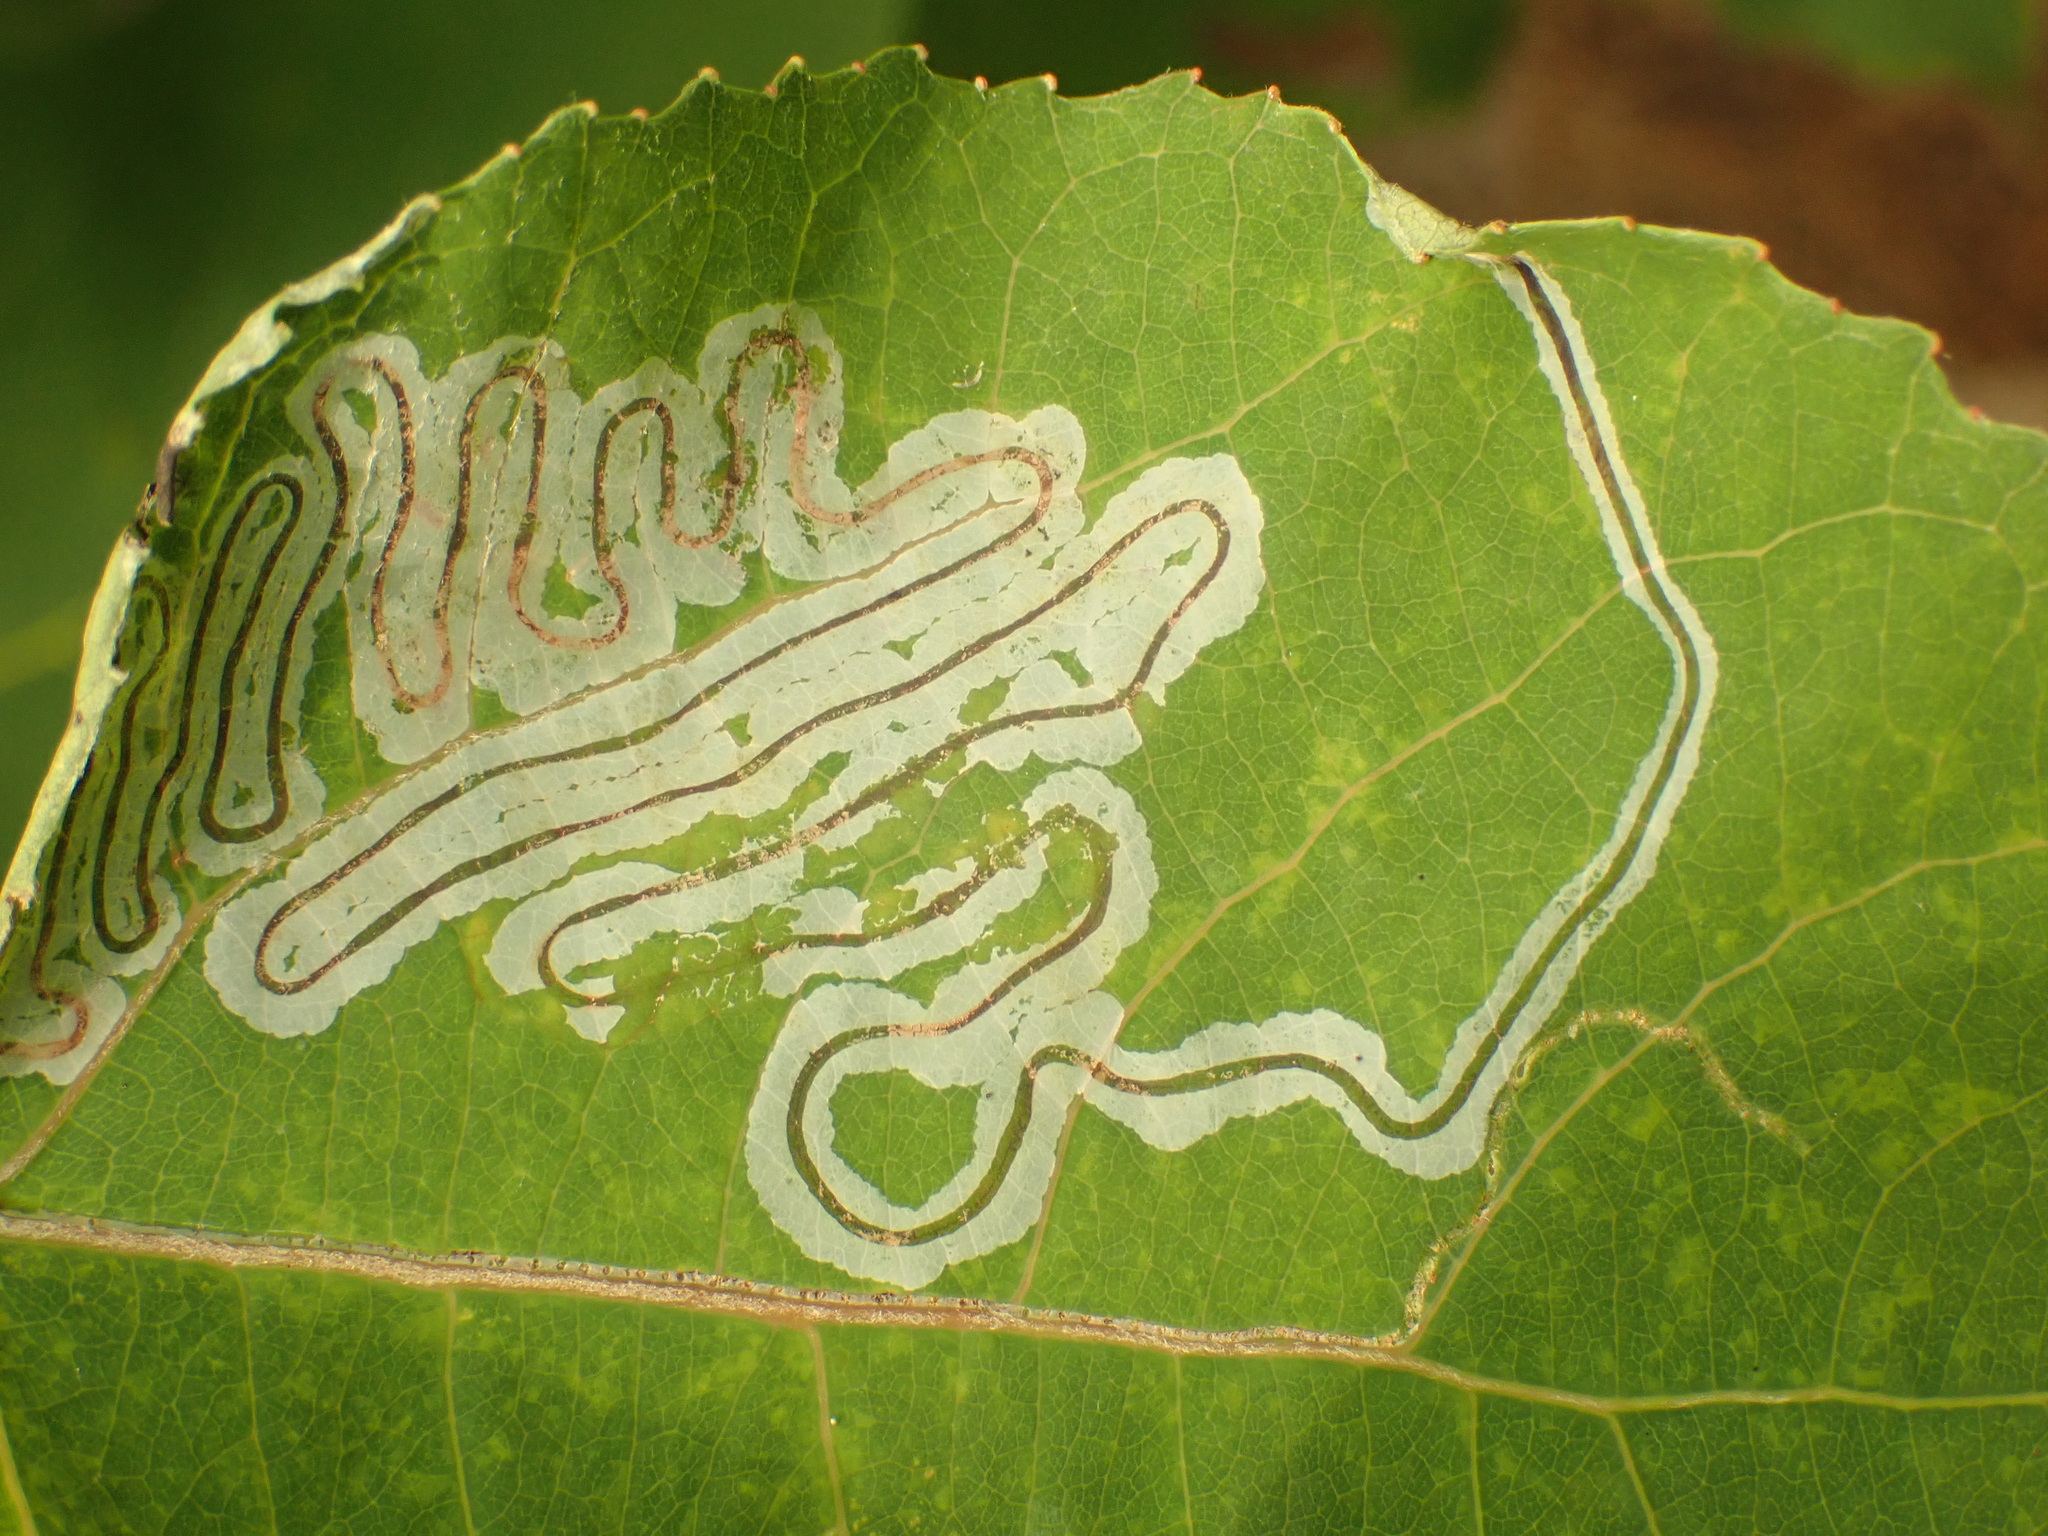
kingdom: Animalia
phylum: Arthropoda
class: Insecta
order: Lepidoptera
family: Gracillariidae
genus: Phyllocnistis
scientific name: Phyllocnistis populiella
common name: Aspen serpentine leafminer moth
